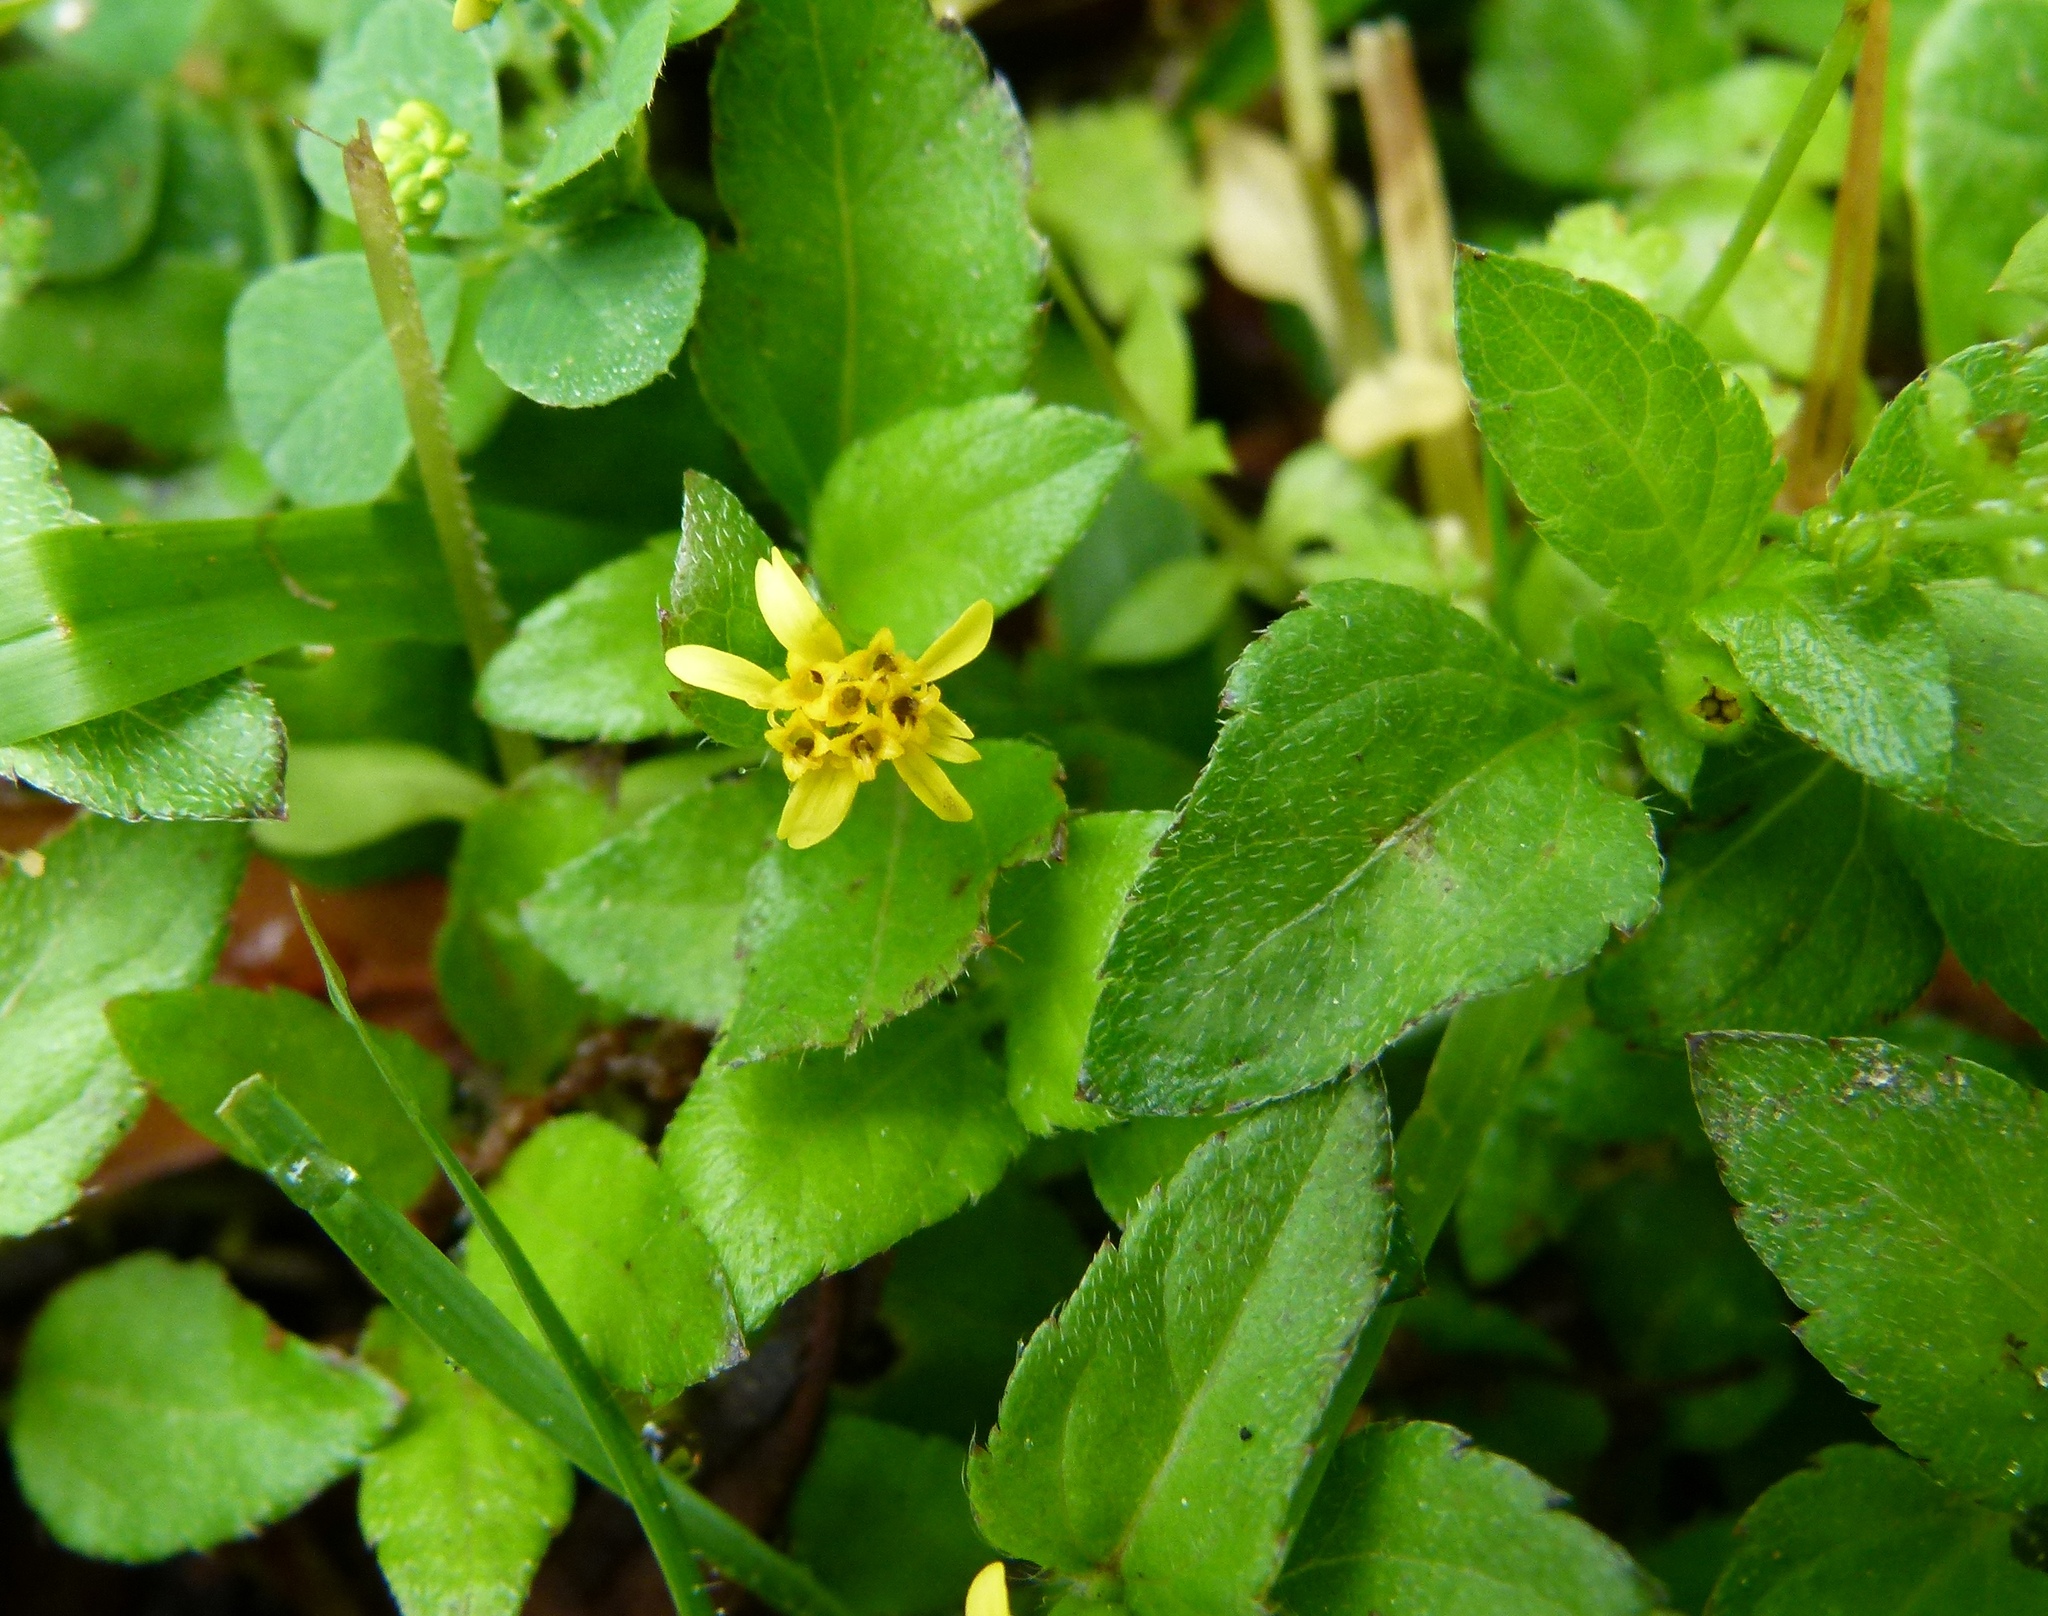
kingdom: Plantae
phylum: Tracheophyta
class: Magnoliopsida
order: Asterales
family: Asteraceae
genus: Acmella
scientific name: Acmella repens
